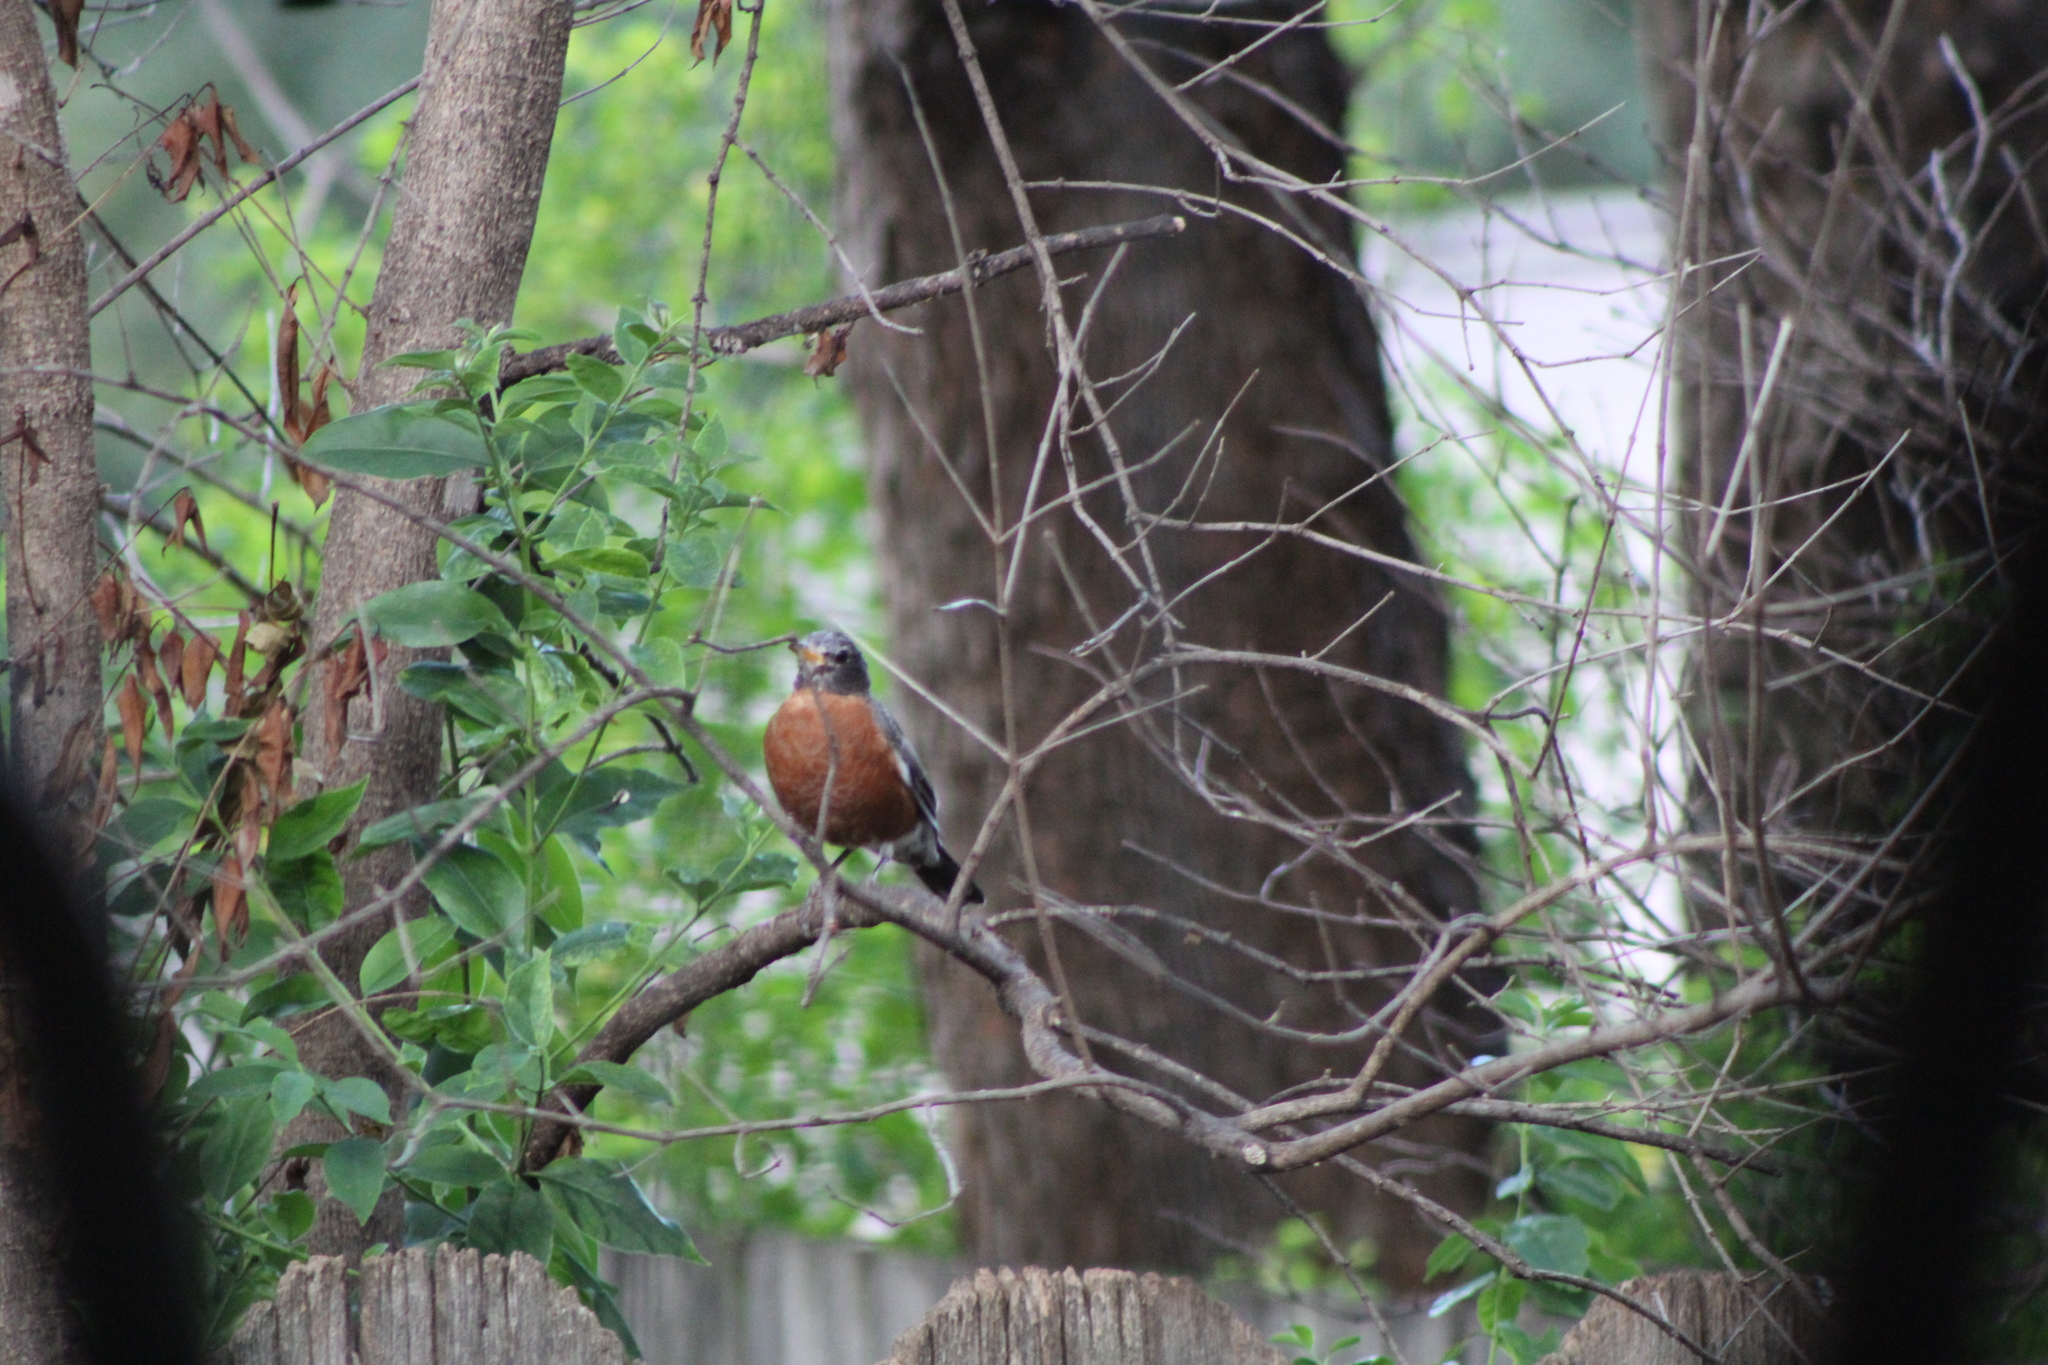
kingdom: Animalia
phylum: Chordata
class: Aves
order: Passeriformes
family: Turdidae
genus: Turdus
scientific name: Turdus migratorius
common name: American robin
